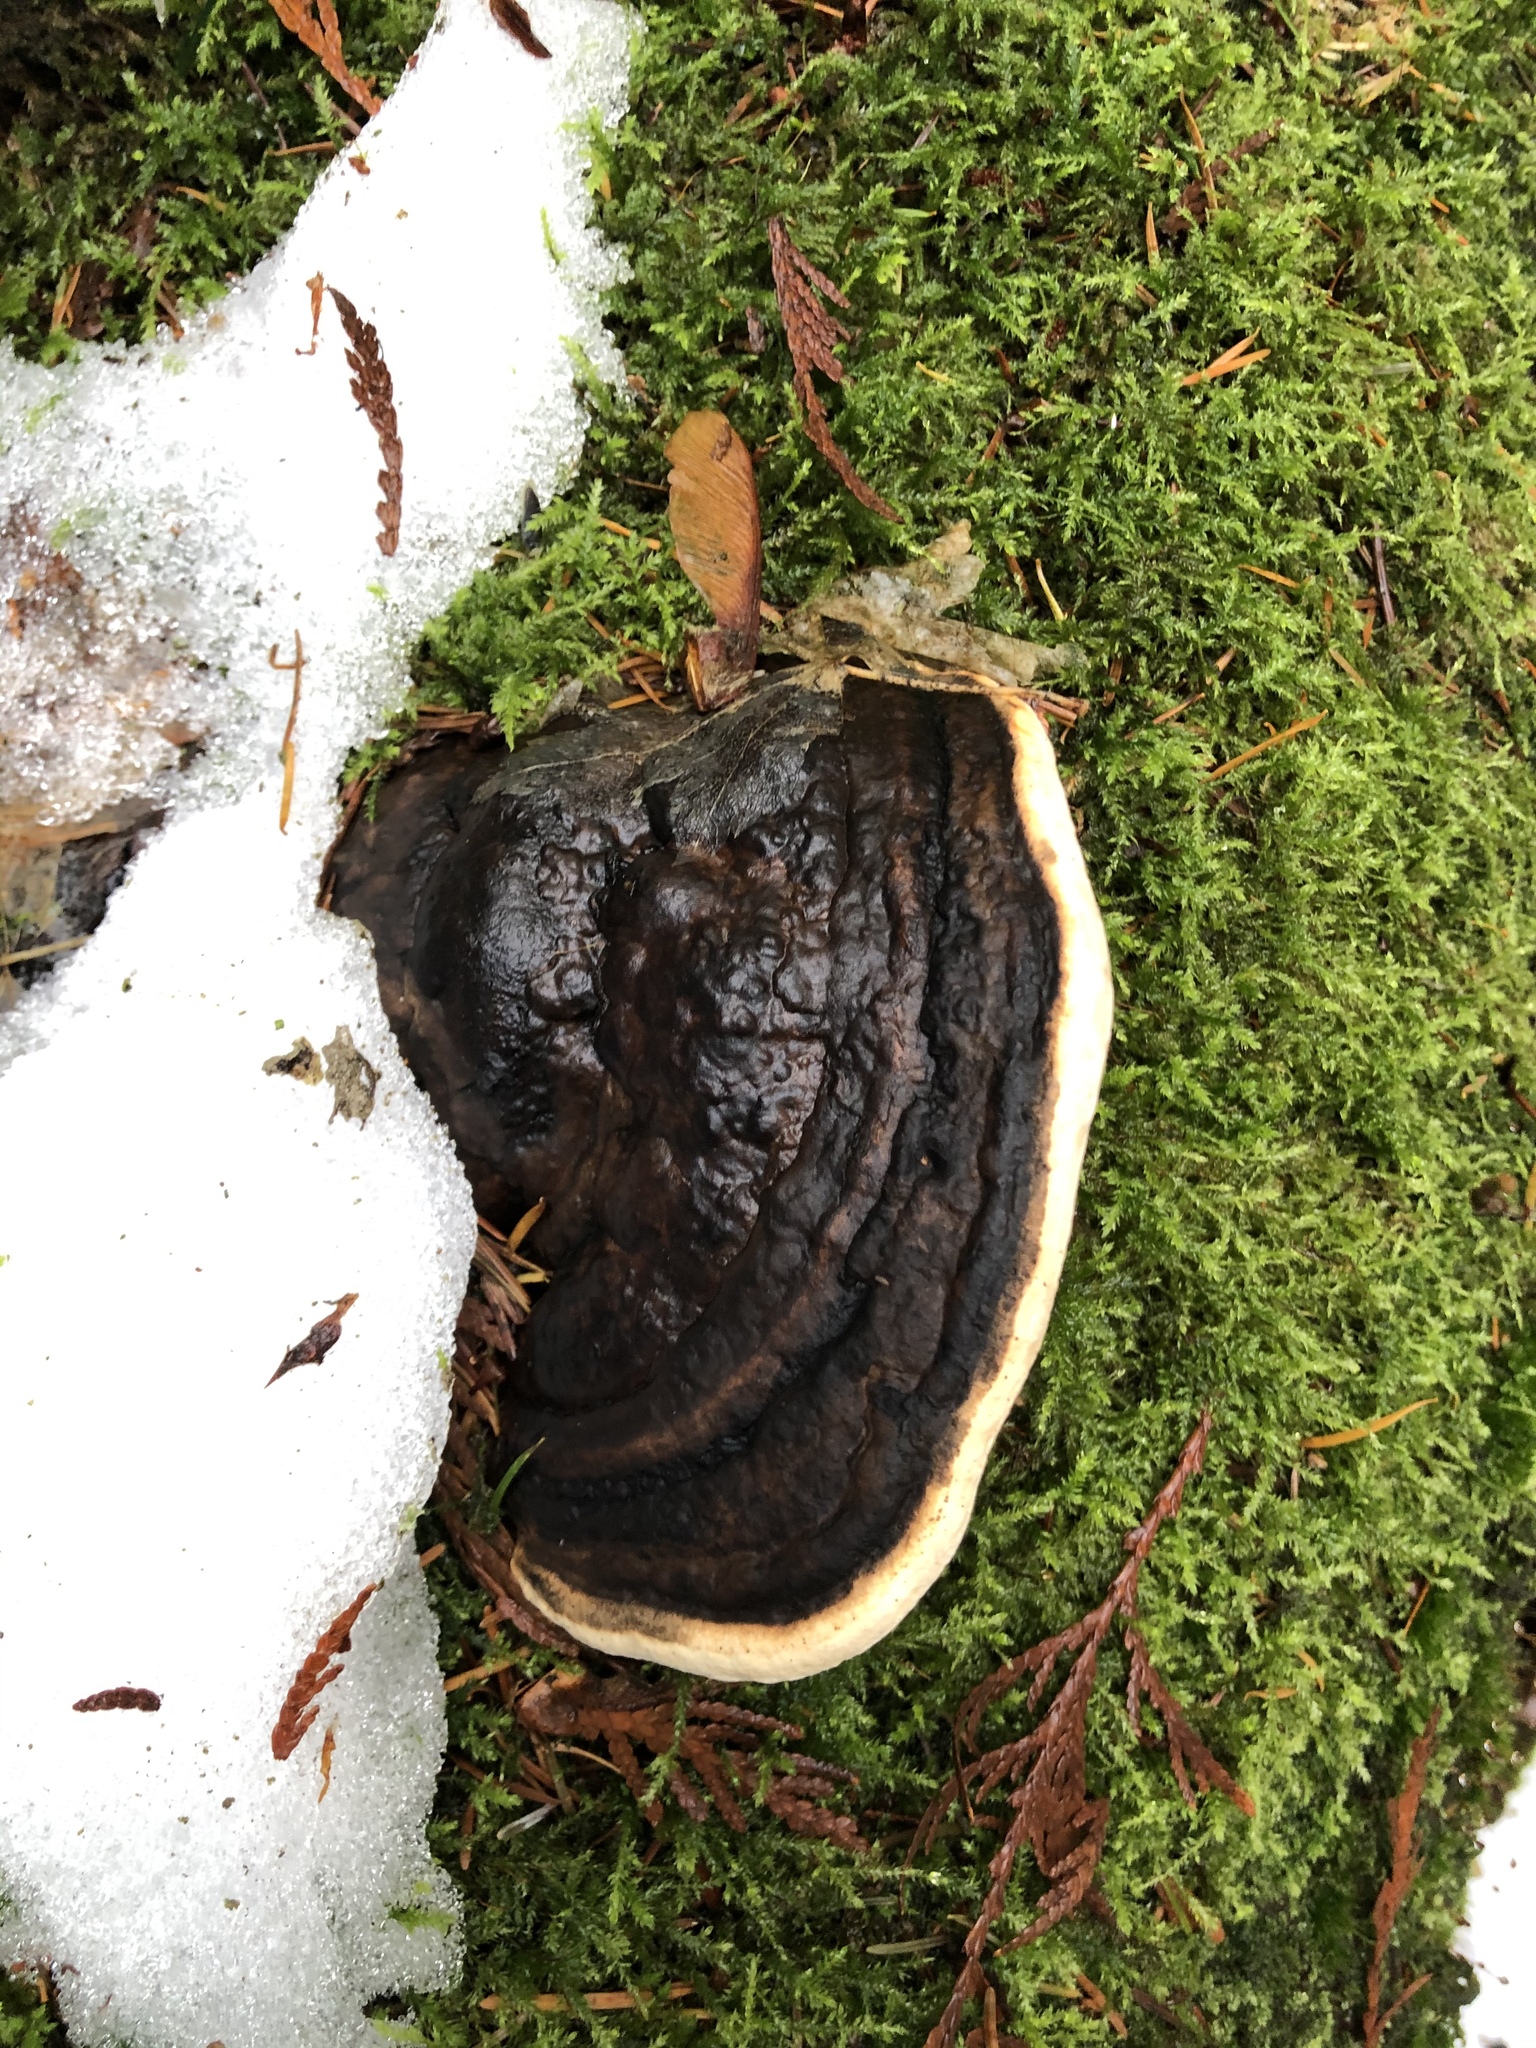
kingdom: Fungi
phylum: Basidiomycota
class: Agaricomycetes
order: Polyporales
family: Fomitopsidaceae
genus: Fomitopsis
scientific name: Fomitopsis ochracea
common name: American brown fomitopsis
